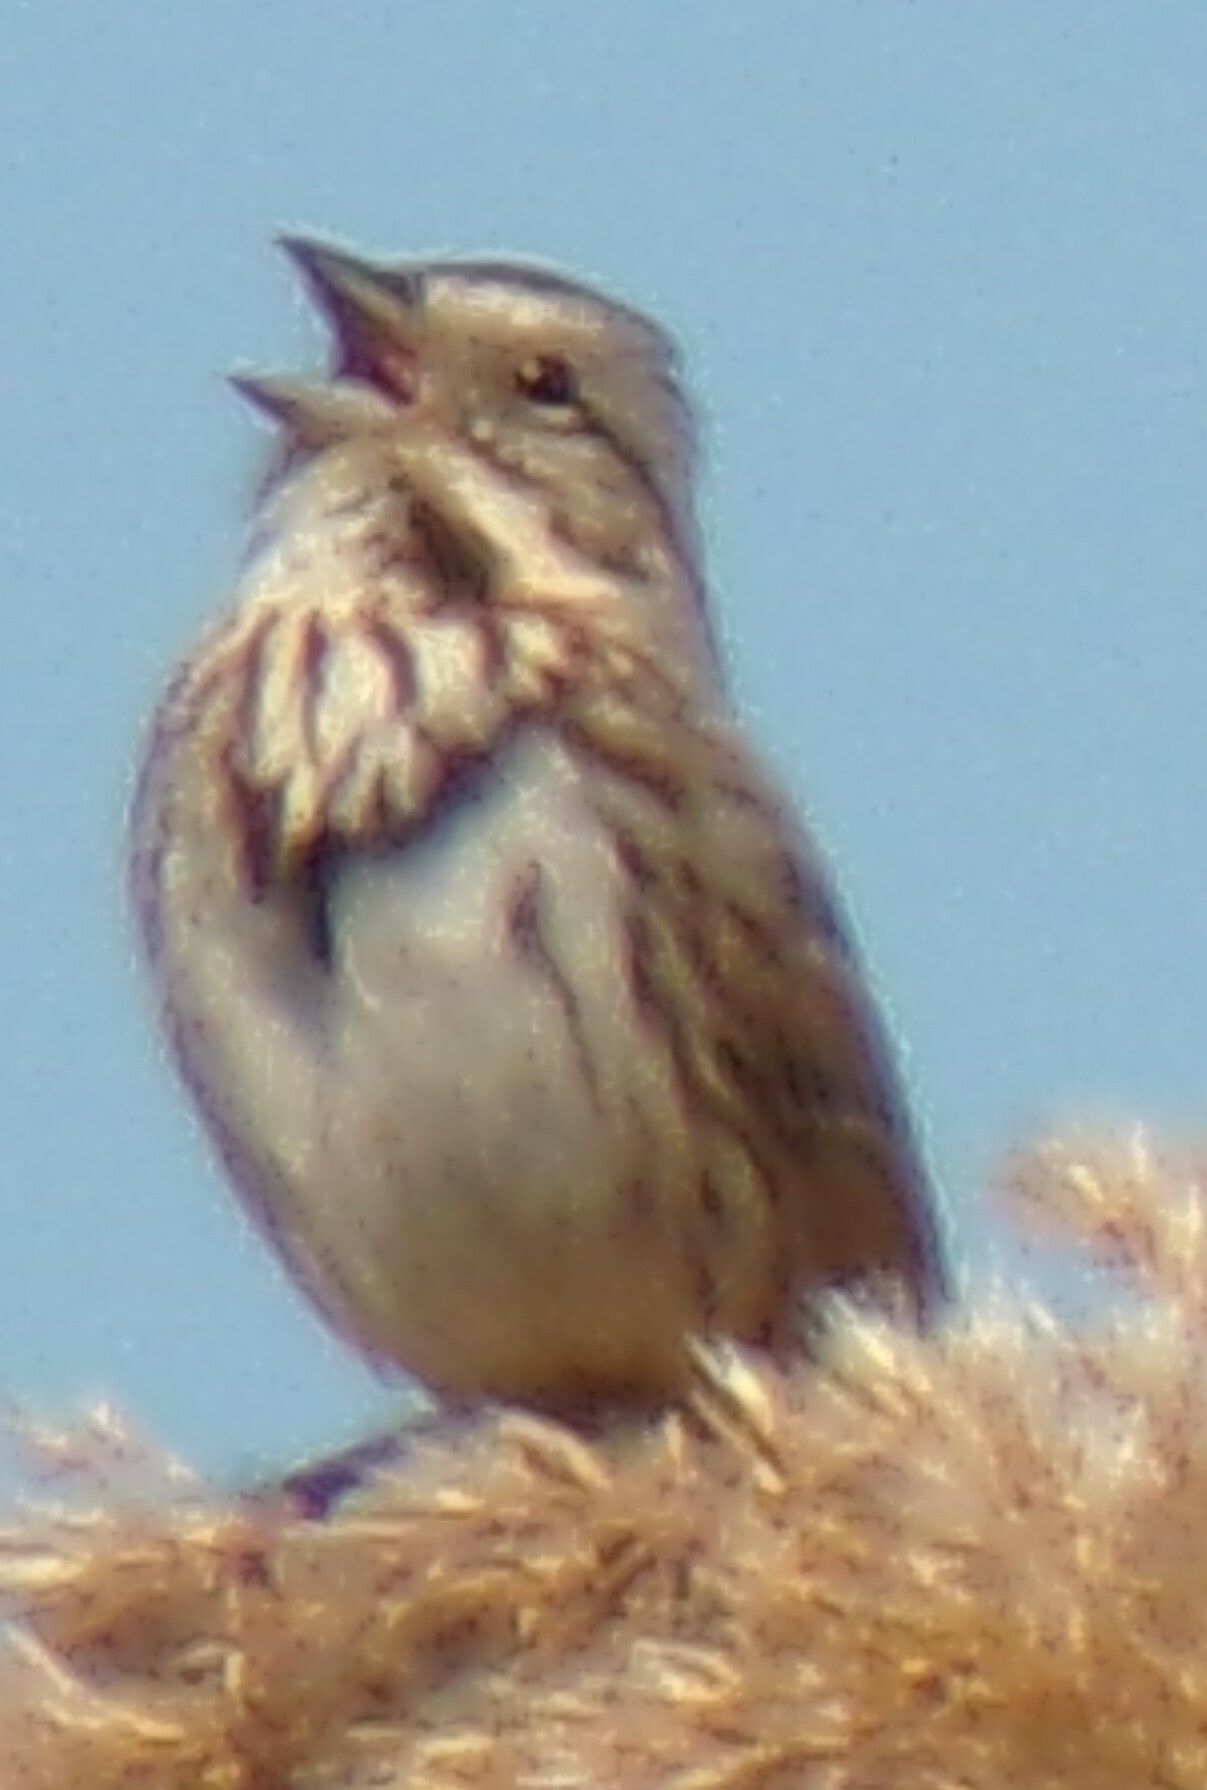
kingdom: Animalia
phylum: Chordata
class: Aves
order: Passeriformes
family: Passerellidae
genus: Melospiza
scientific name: Melospiza melodia
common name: Song sparrow
